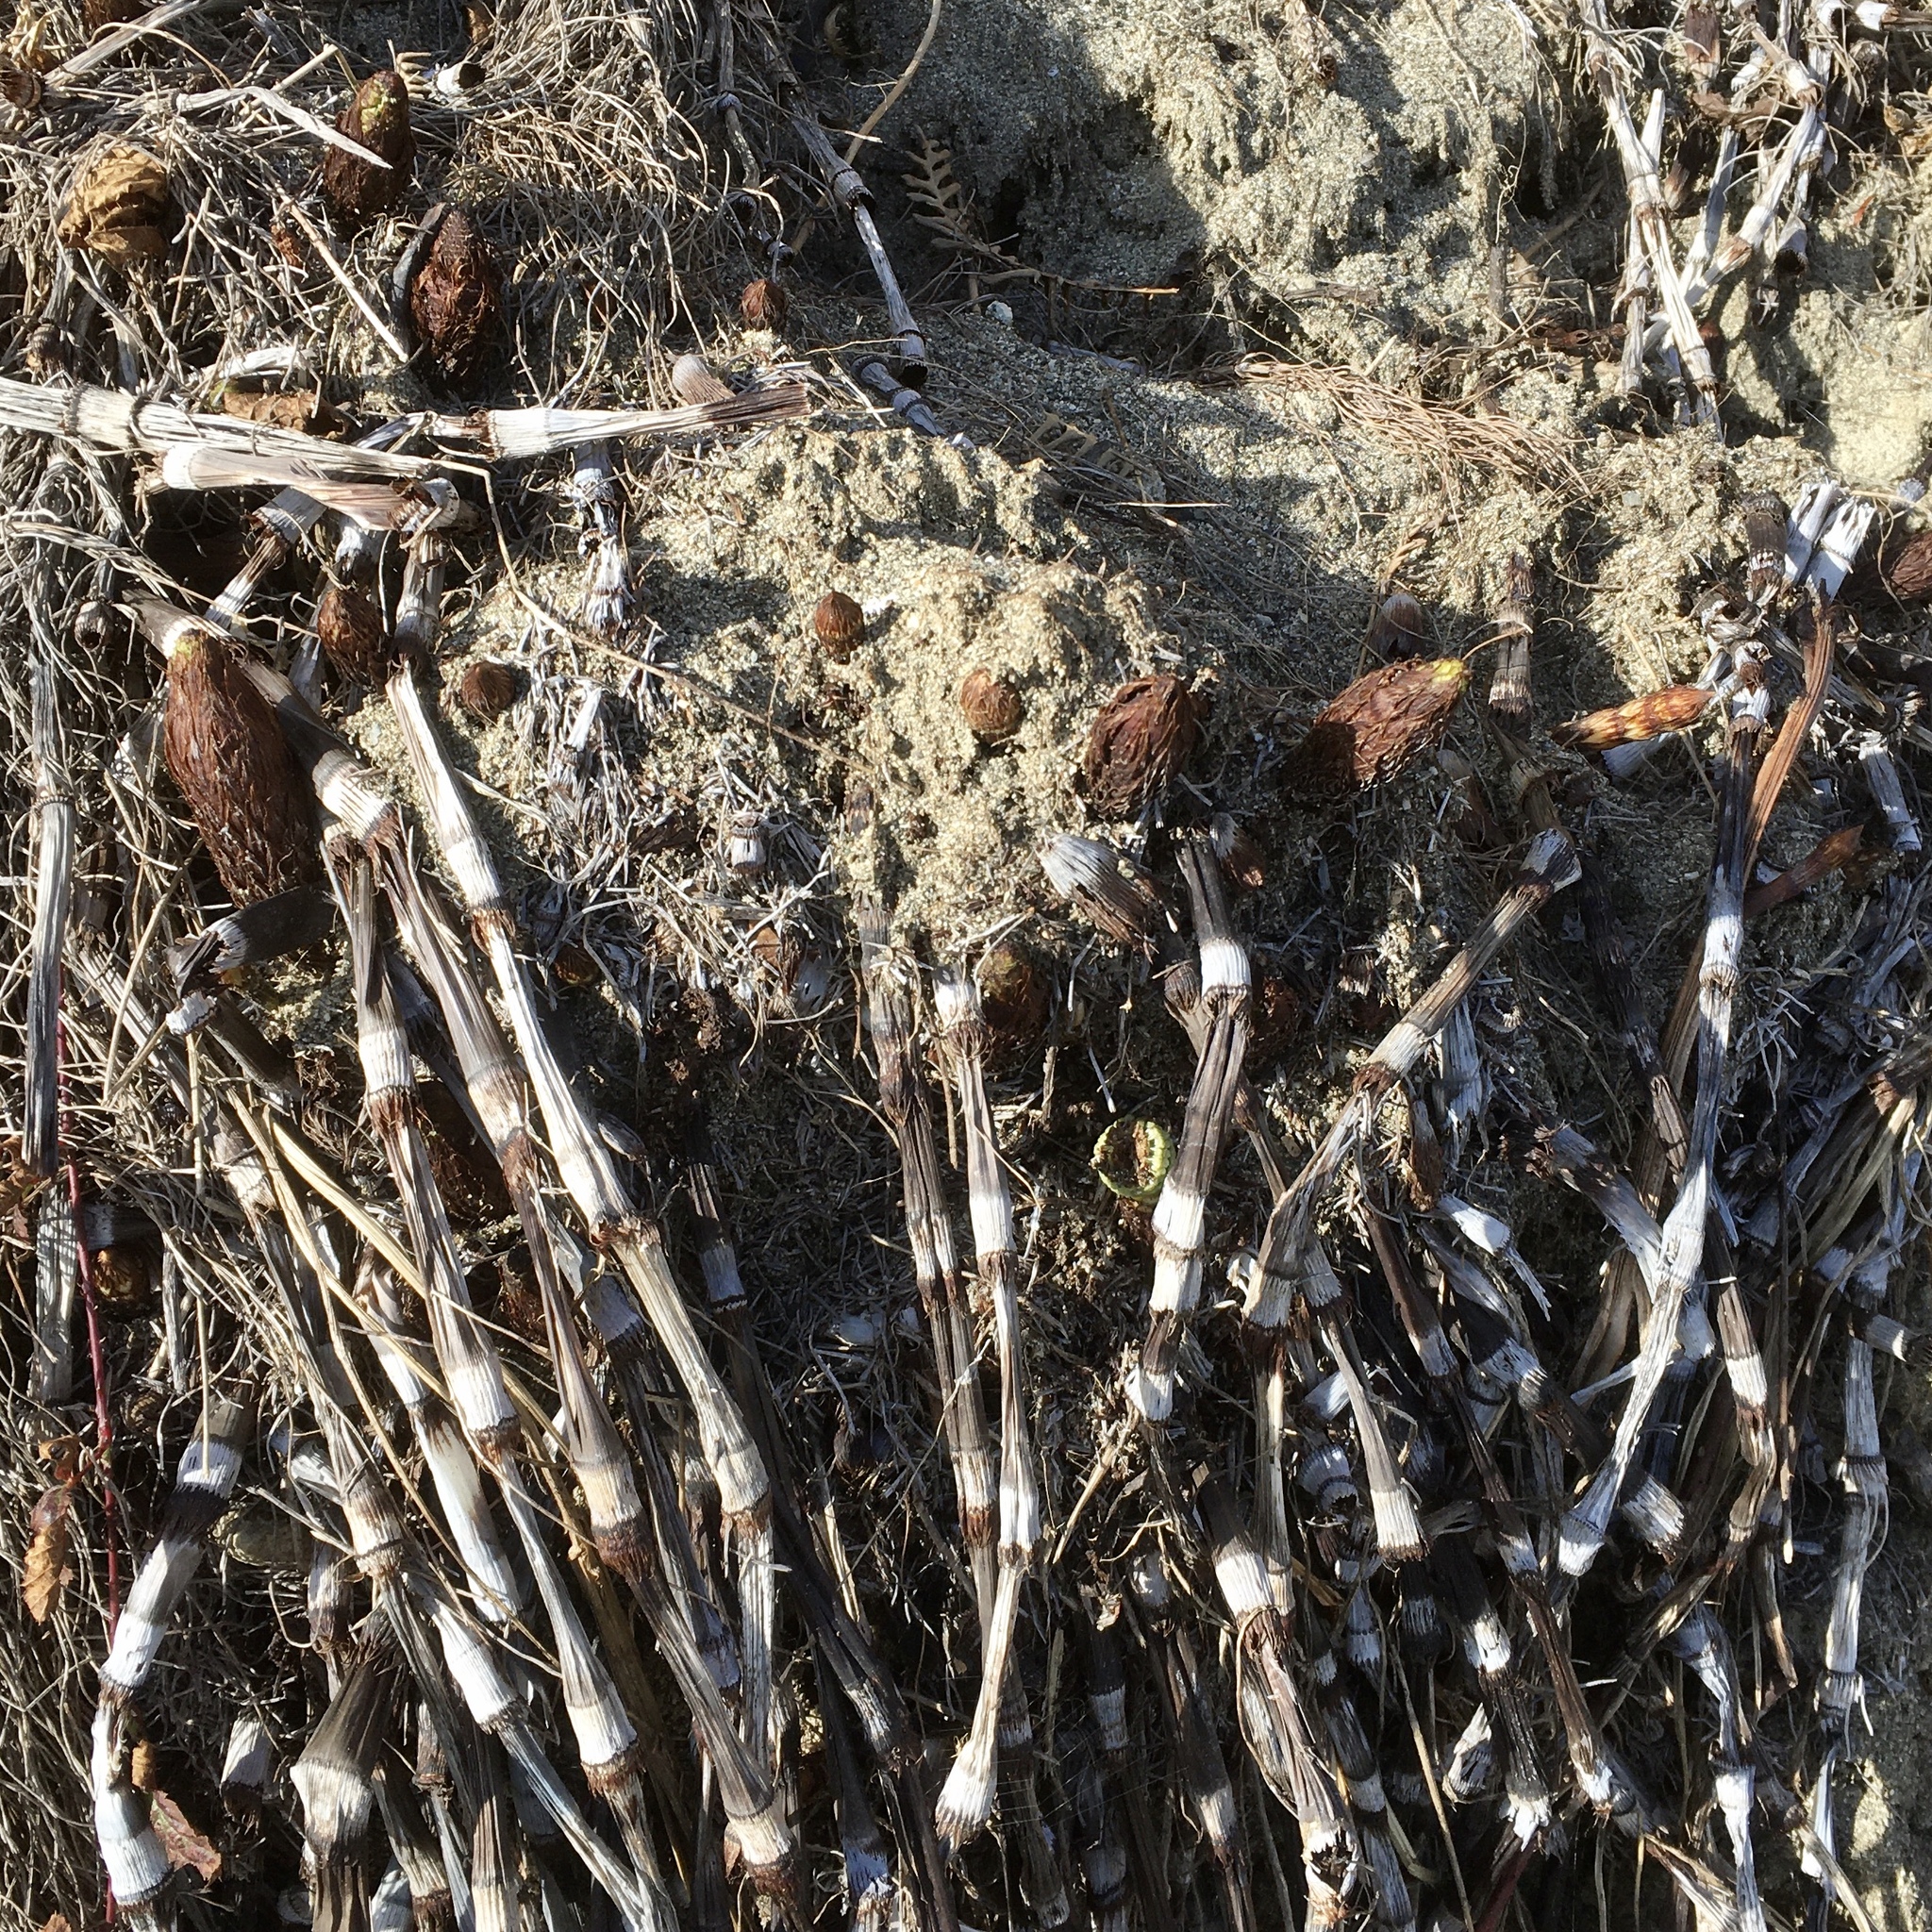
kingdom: Plantae
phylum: Tracheophyta
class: Polypodiopsida
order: Equisetales
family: Equisetaceae
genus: Equisetum
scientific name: Equisetum braunii
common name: Braun's horsetail
